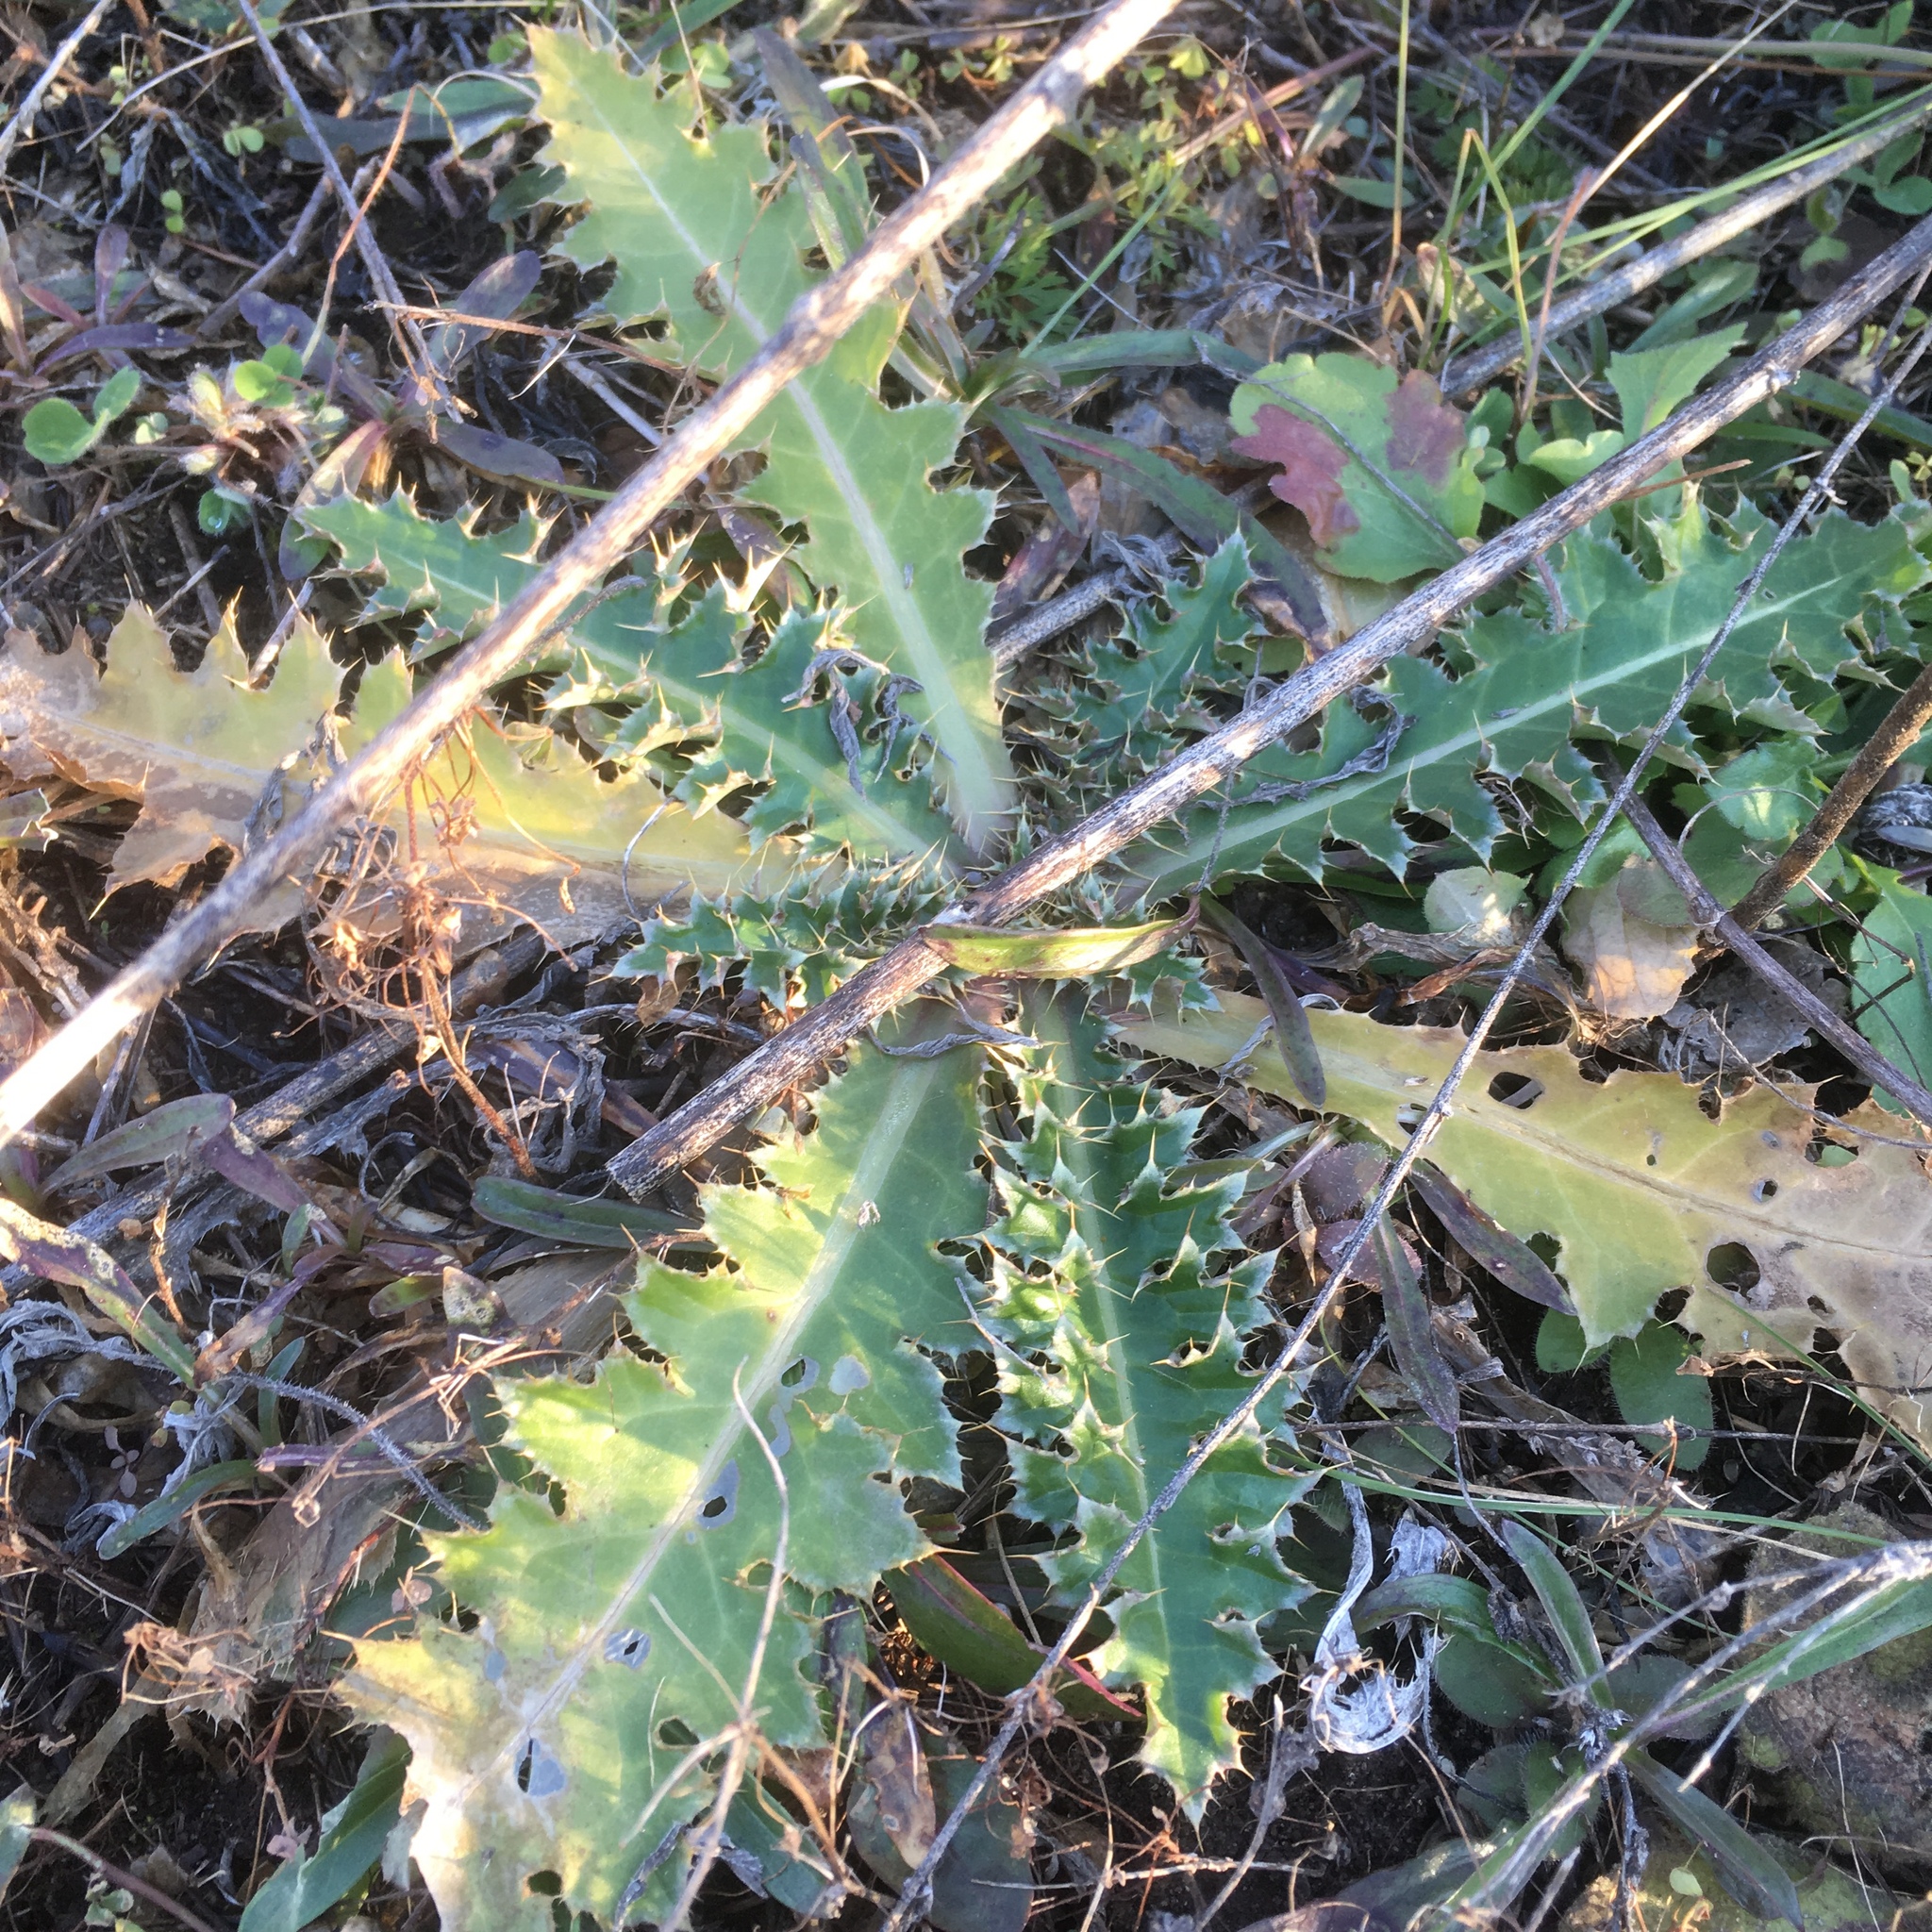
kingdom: Plantae
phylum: Tracheophyta
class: Magnoliopsida
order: Asterales
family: Asteraceae
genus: Cirsium
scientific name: Cirsium vulgare
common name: Bull thistle
